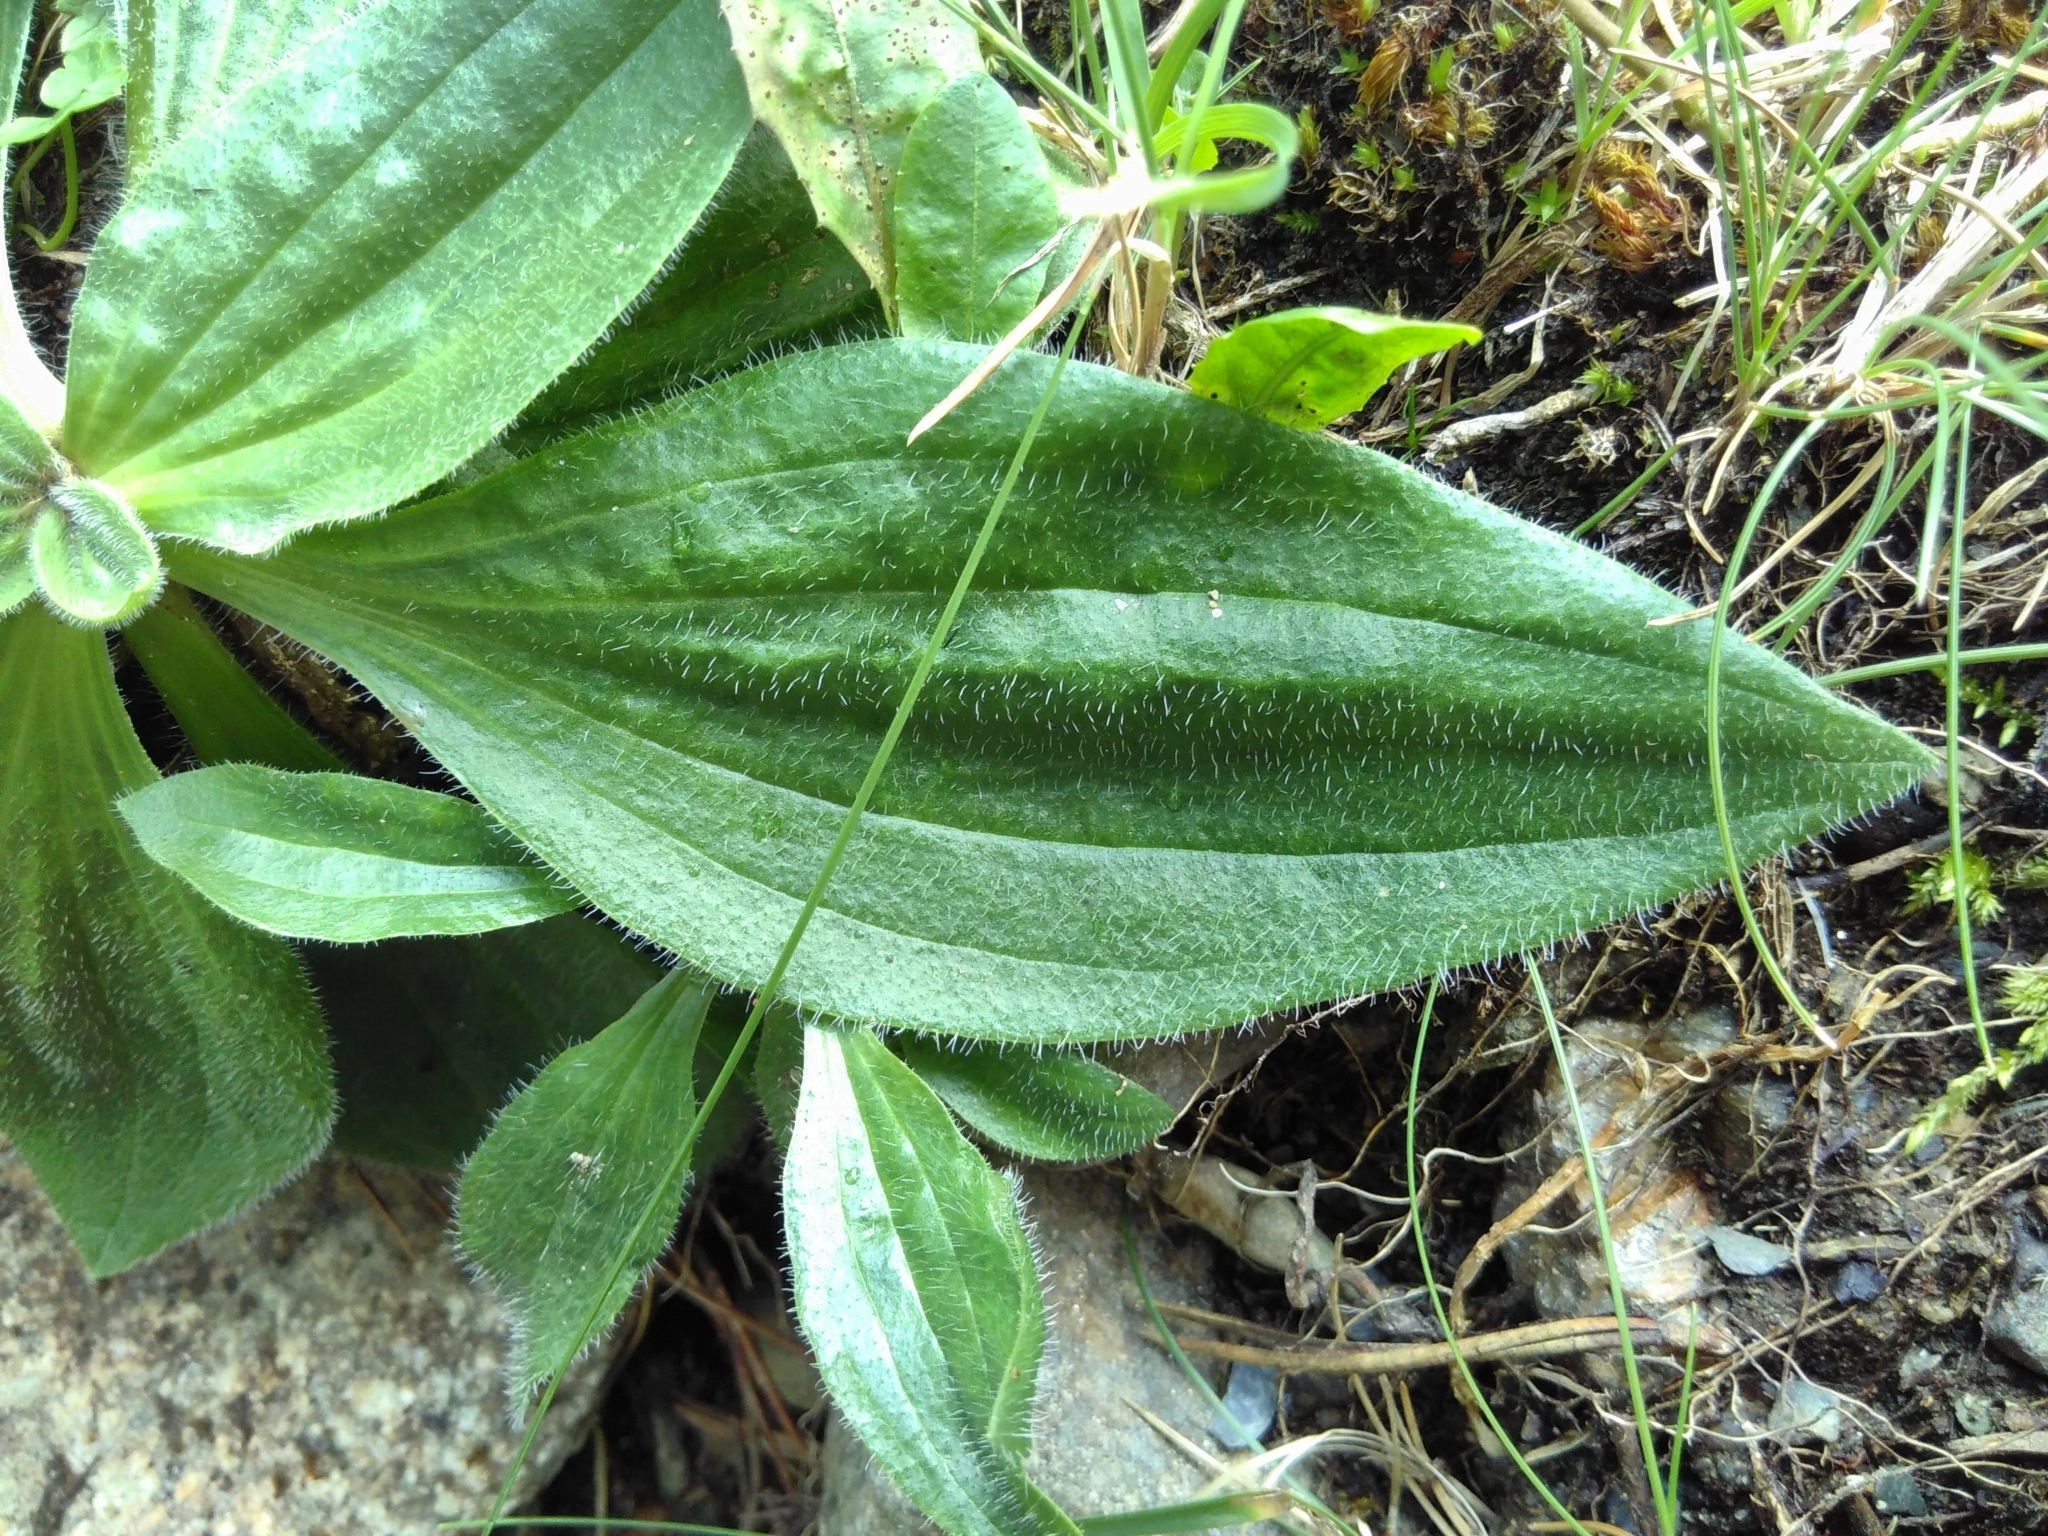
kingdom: Plantae
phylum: Tracheophyta
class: Magnoliopsida
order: Lamiales
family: Plantaginaceae
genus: Plantago
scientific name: Plantago media
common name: Hoary plantain
